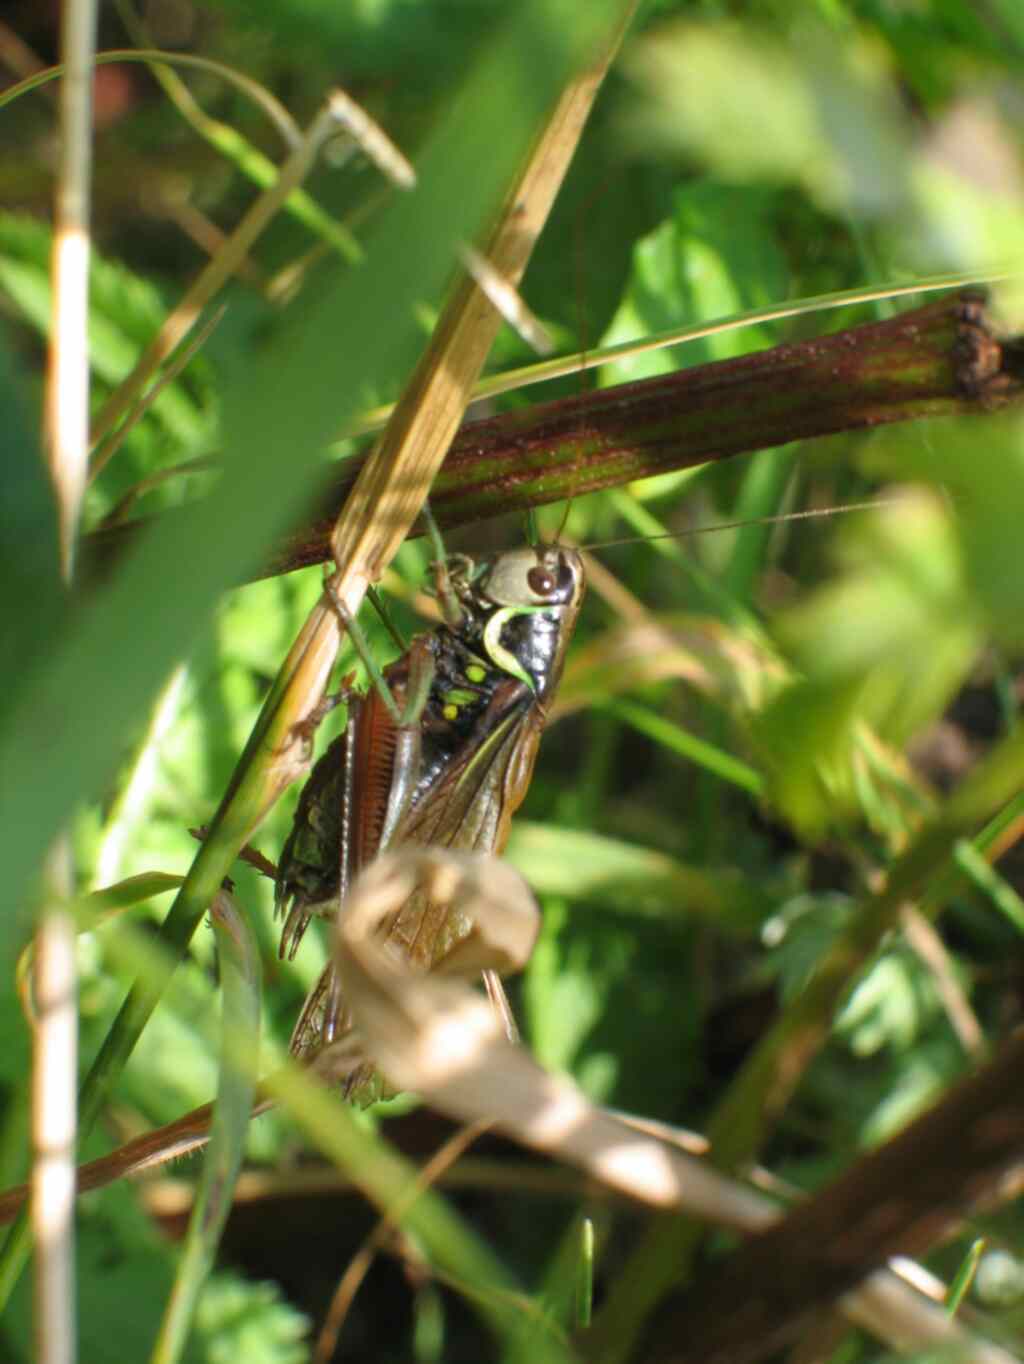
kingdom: Animalia
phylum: Arthropoda
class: Insecta
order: Orthoptera
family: Tettigoniidae
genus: Roeseliana
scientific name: Roeseliana roeselii
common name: Roesel's bush cricket
